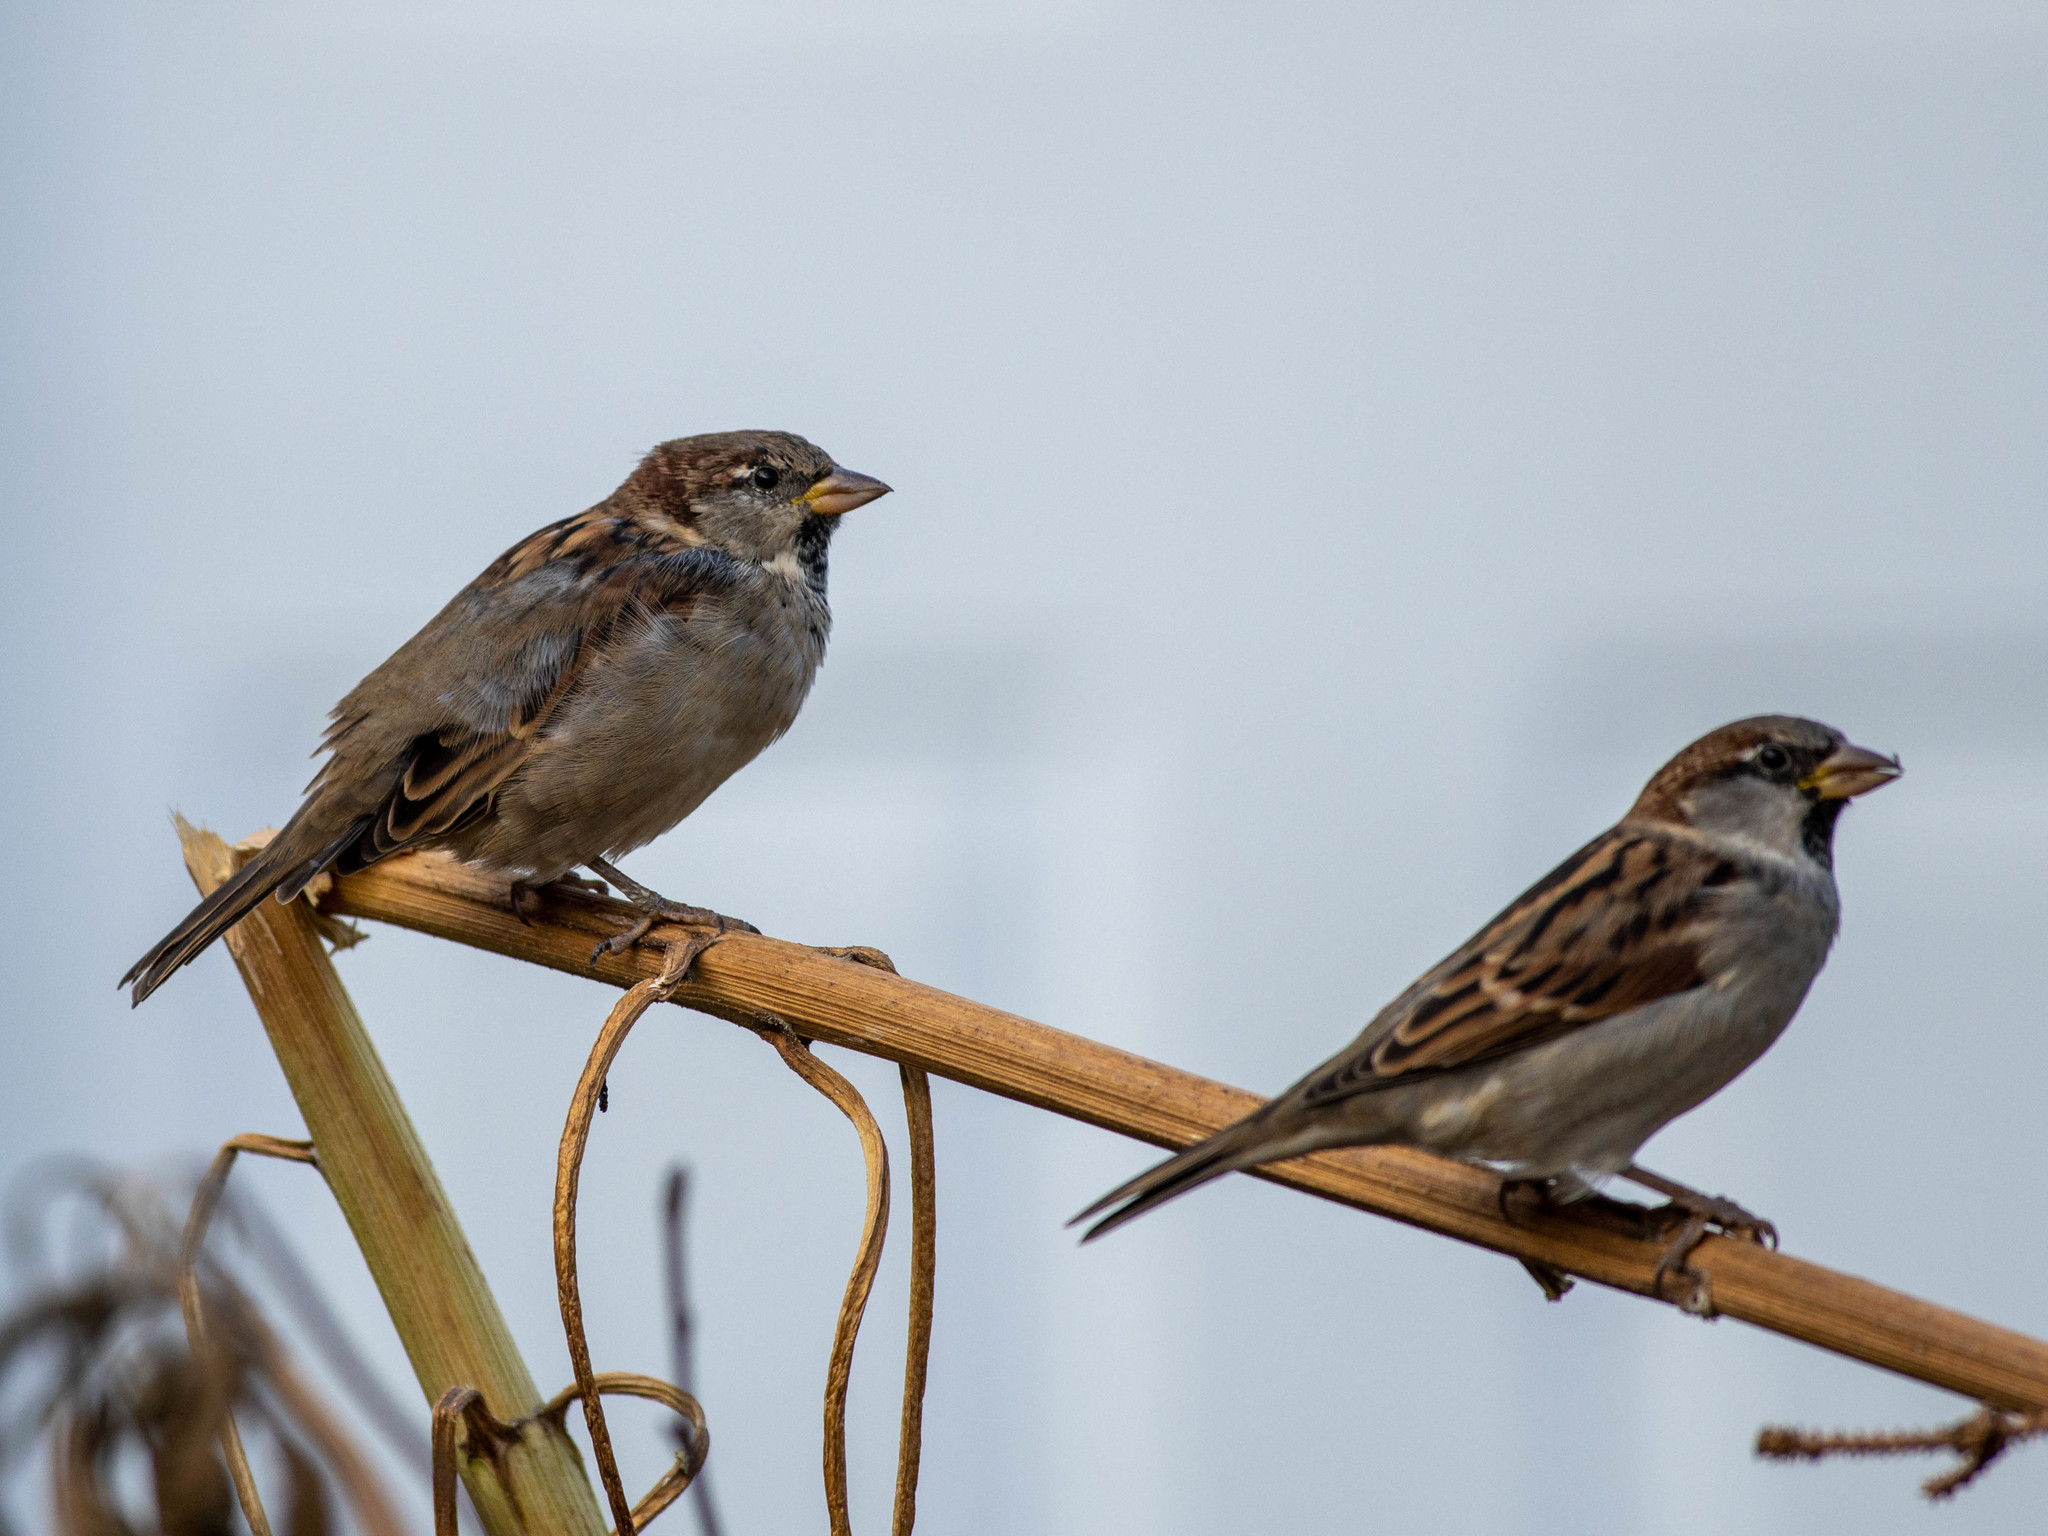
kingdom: Animalia
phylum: Chordata
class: Aves
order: Passeriformes
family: Passeridae
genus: Passer
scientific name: Passer domesticus
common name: House sparrow
